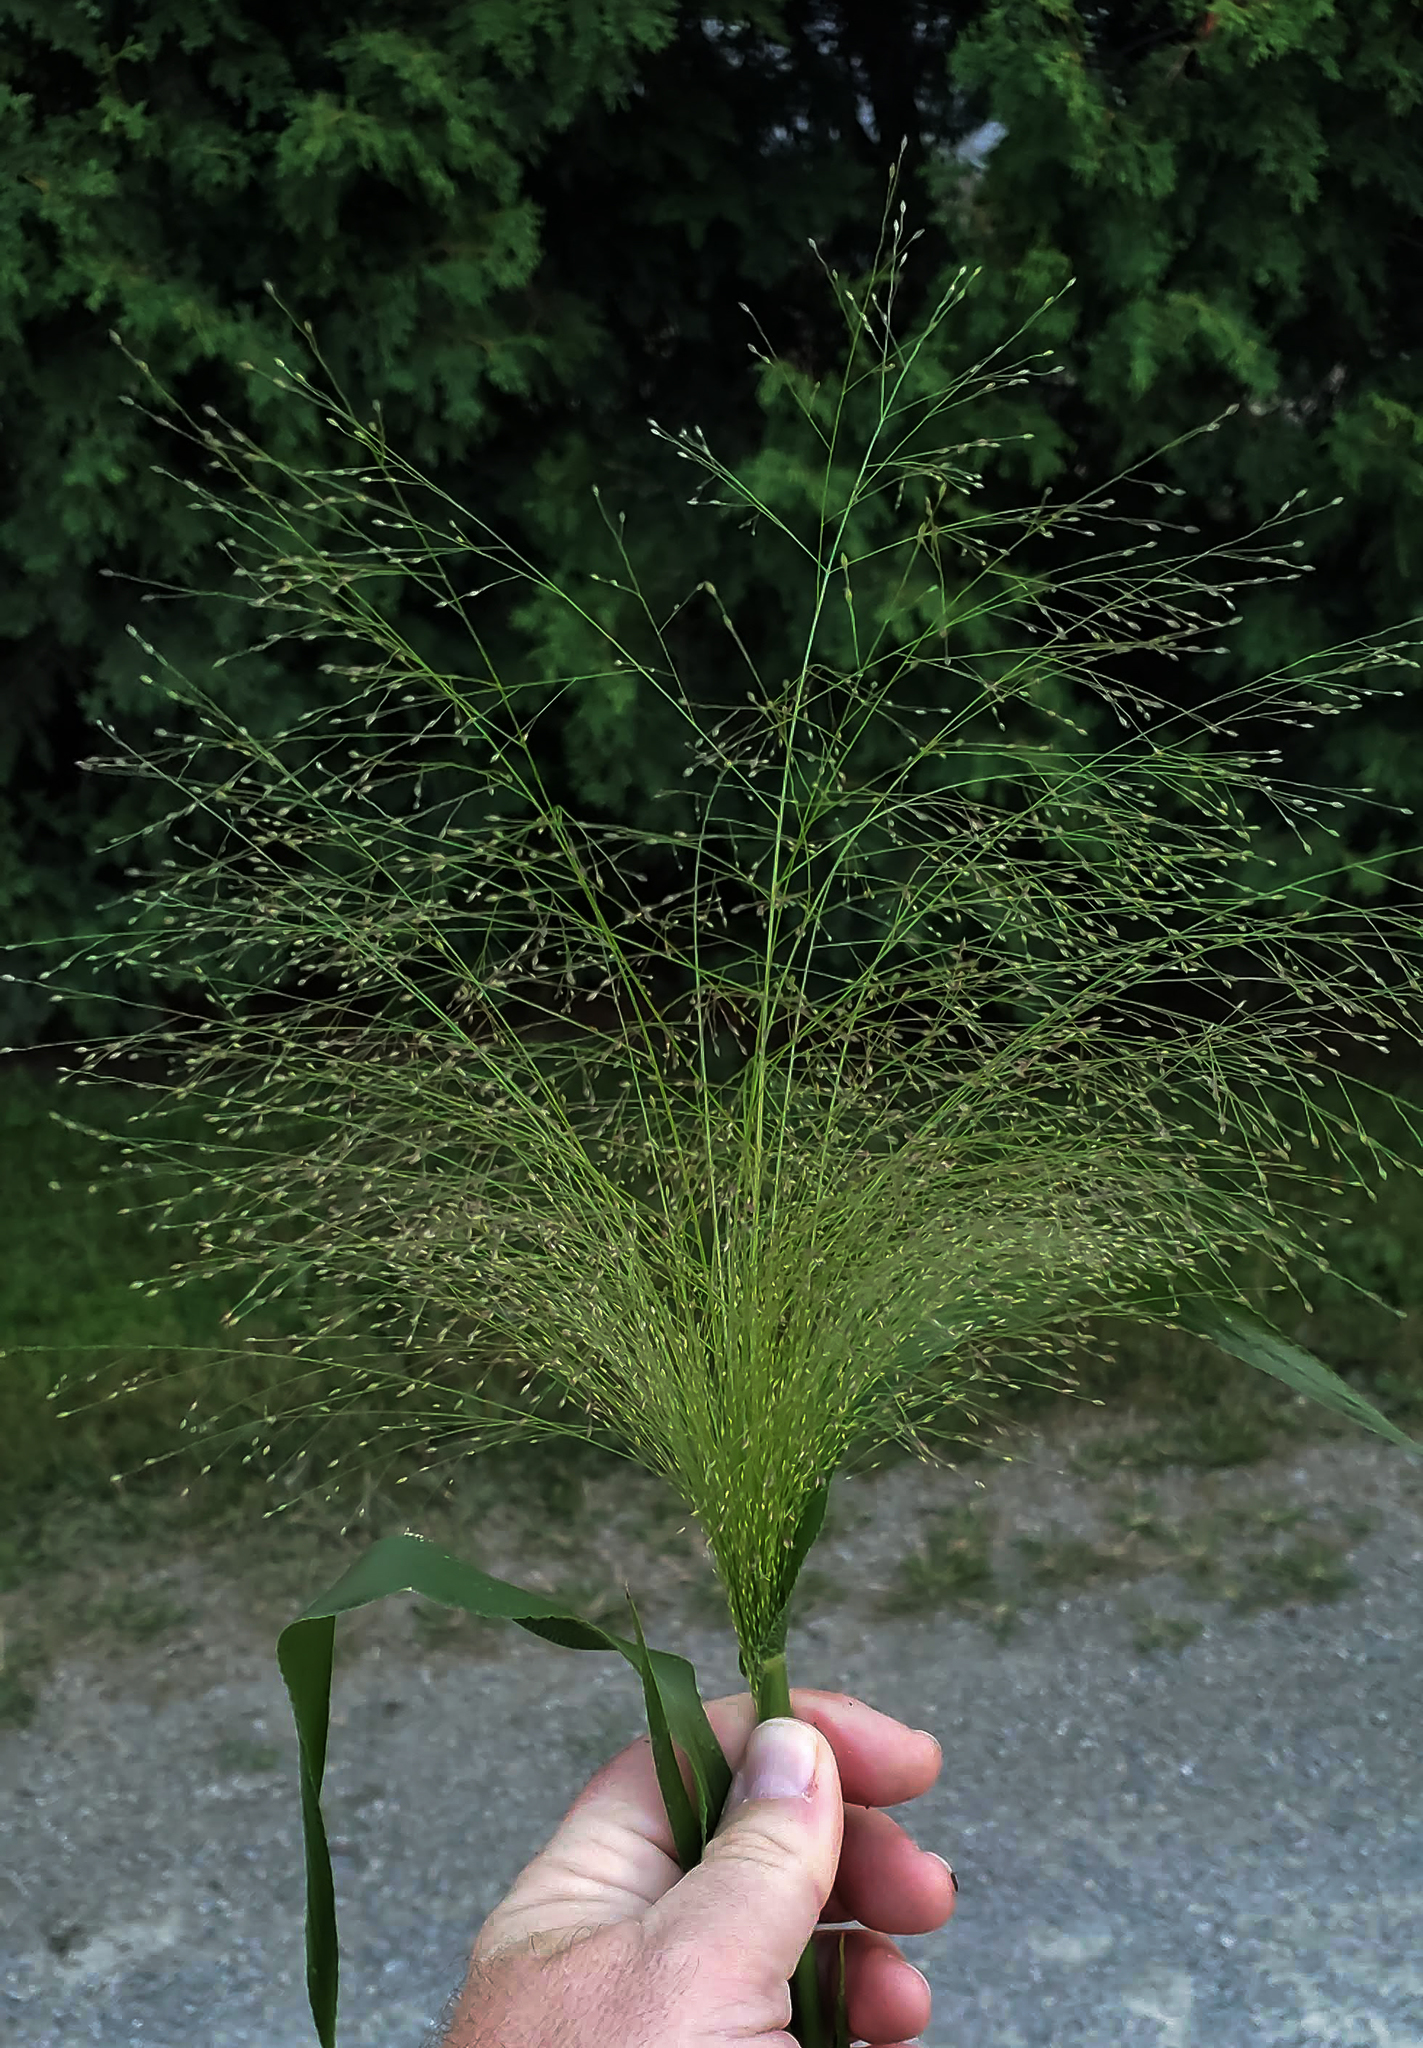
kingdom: Plantae
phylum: Tracheophyta
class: Liliopsida
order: Poales
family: Poaceae
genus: Panicum
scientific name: Panicum capillare
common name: Witch-grass
